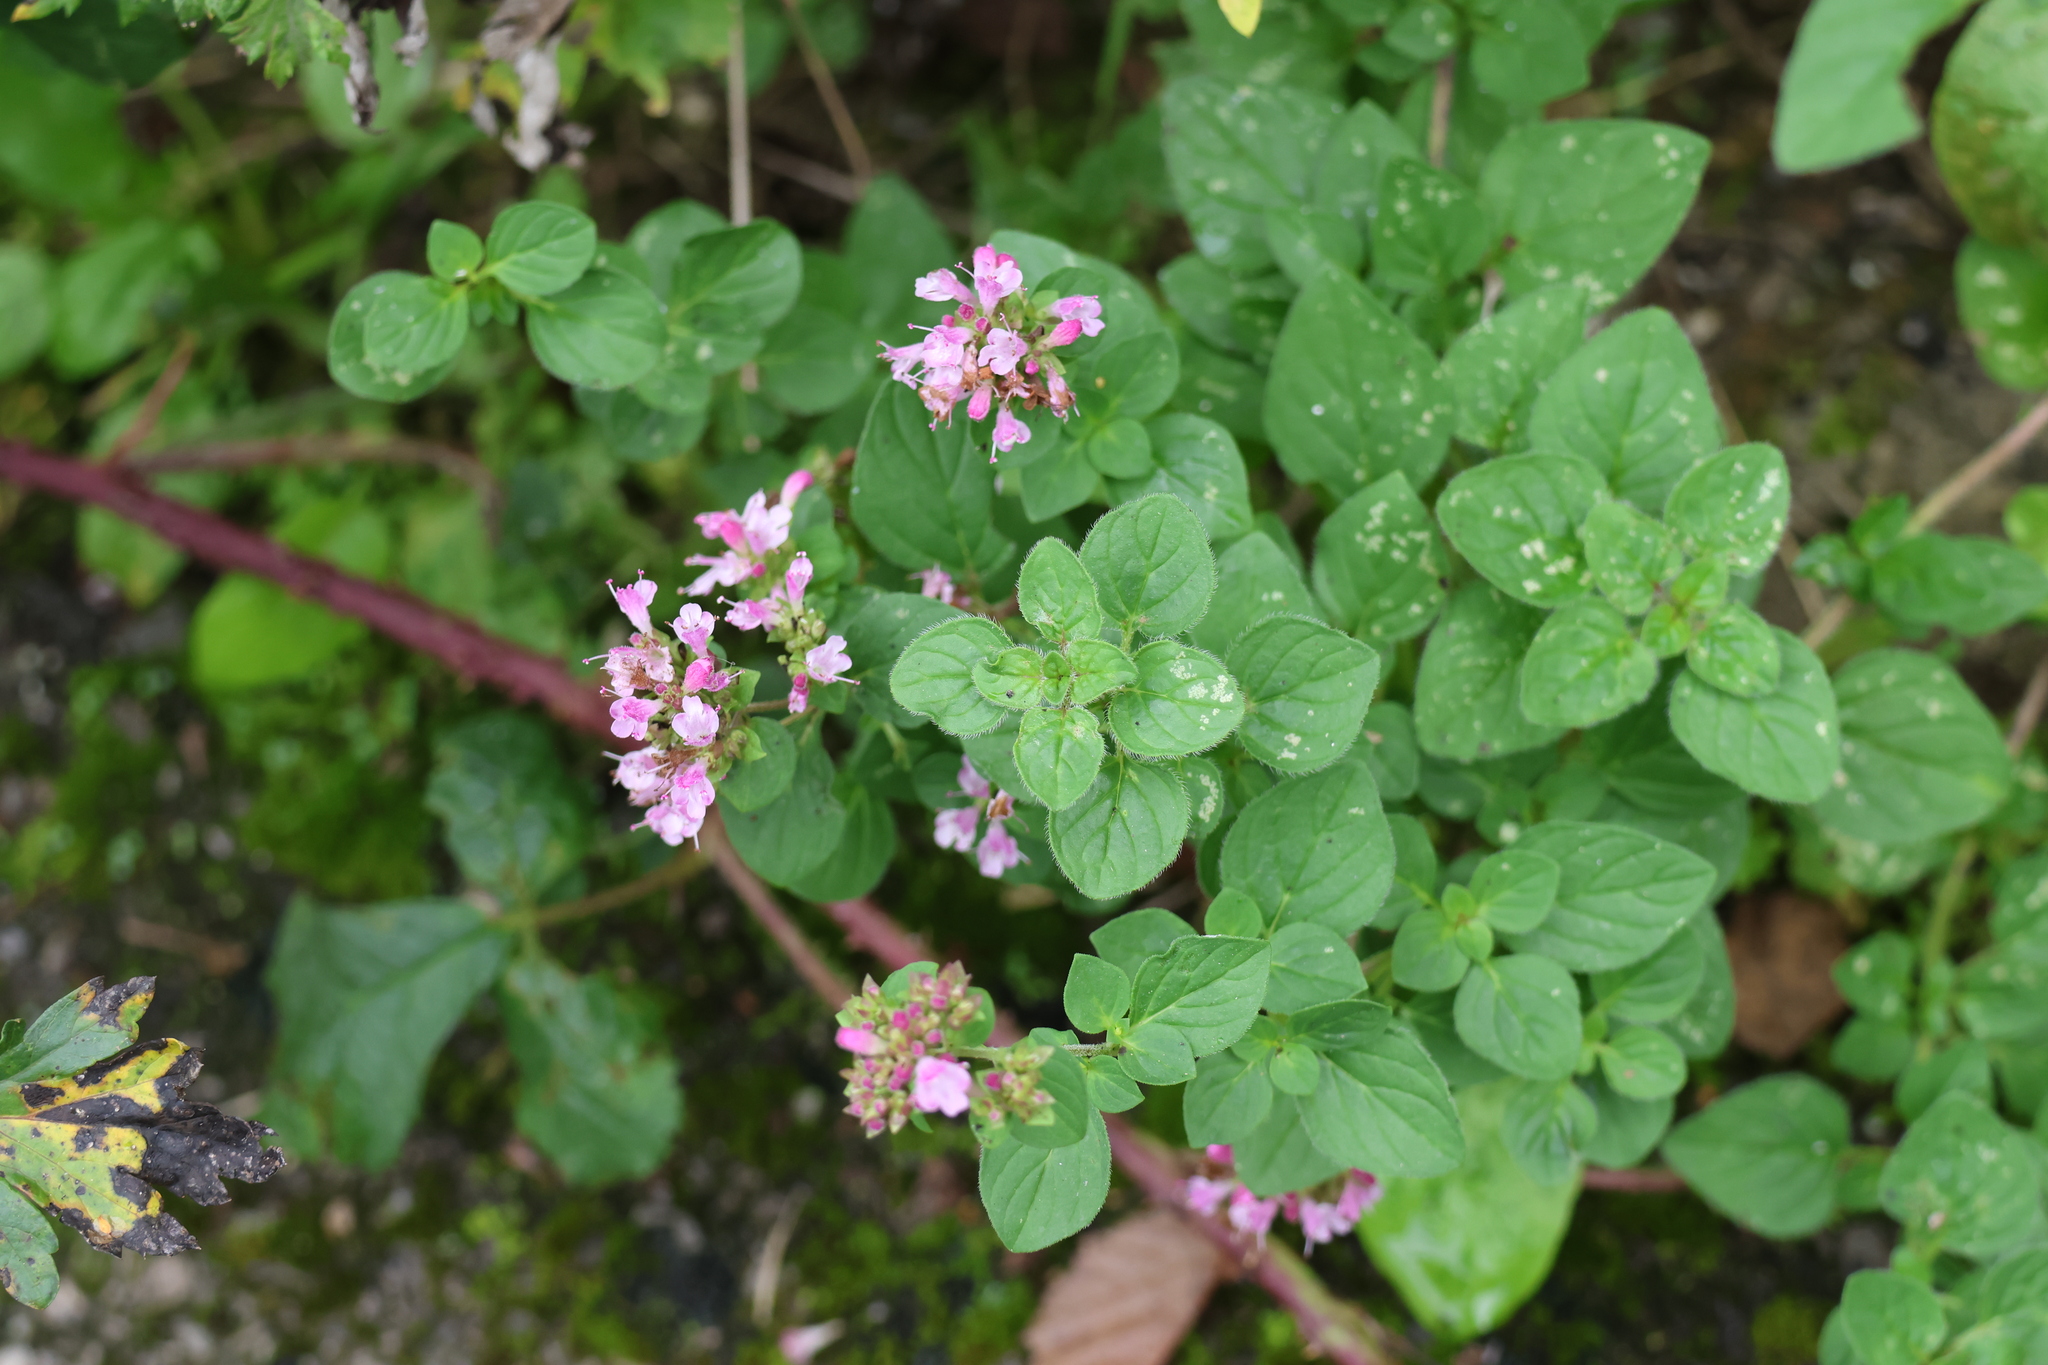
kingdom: Plantae
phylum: Tracheophyta
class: Magnoliopsida
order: Lamiales
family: Lamiaceae
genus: Origanum
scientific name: Origanum vulgare
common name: Wild marjoram
